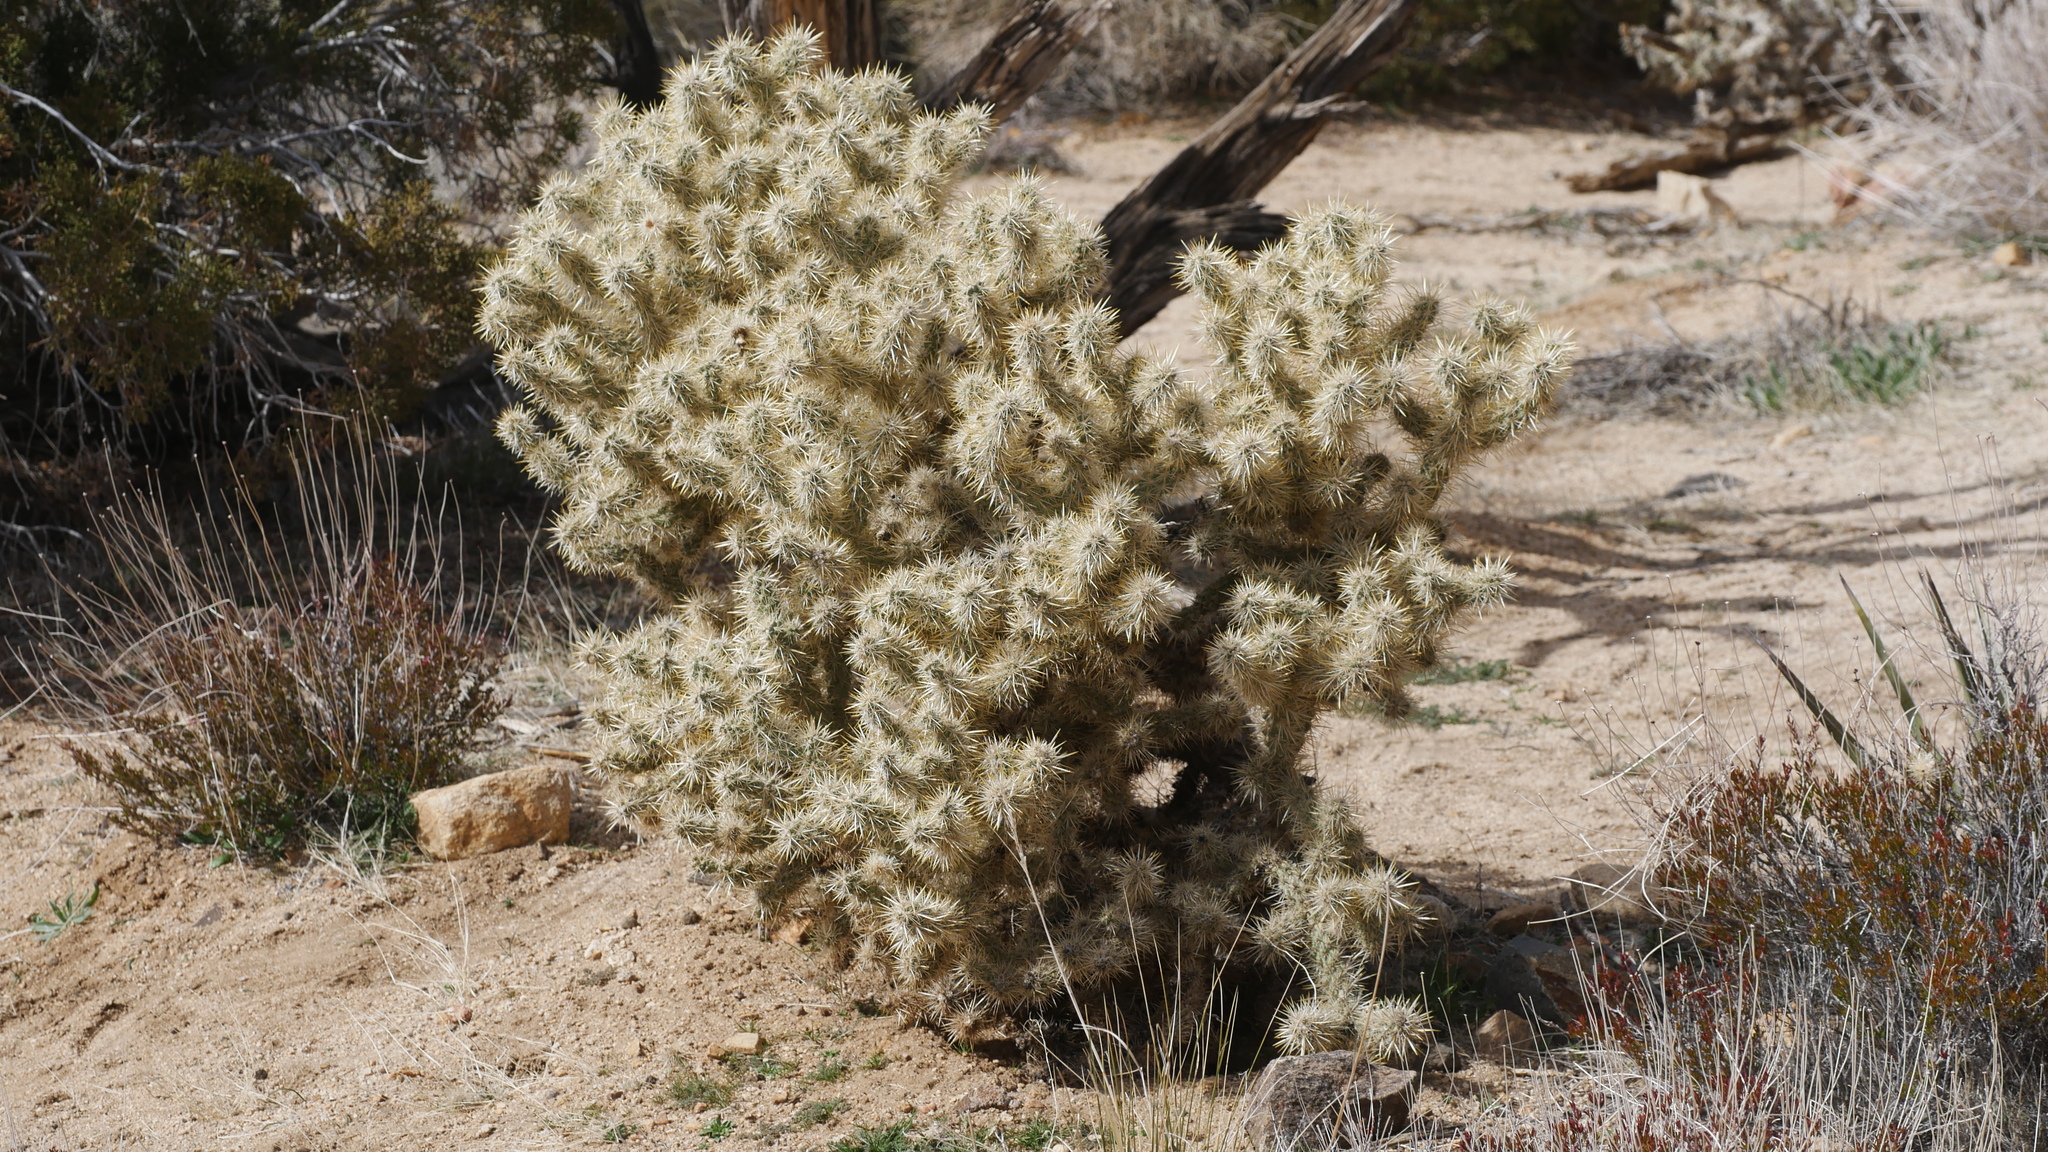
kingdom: Plantae
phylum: Tracheophyta
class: Magnoliopsida
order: Caryophyllales
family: Cactaceae
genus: Cylindropuntia
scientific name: Cylindropuntia echinocarpa
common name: Ground cholla
